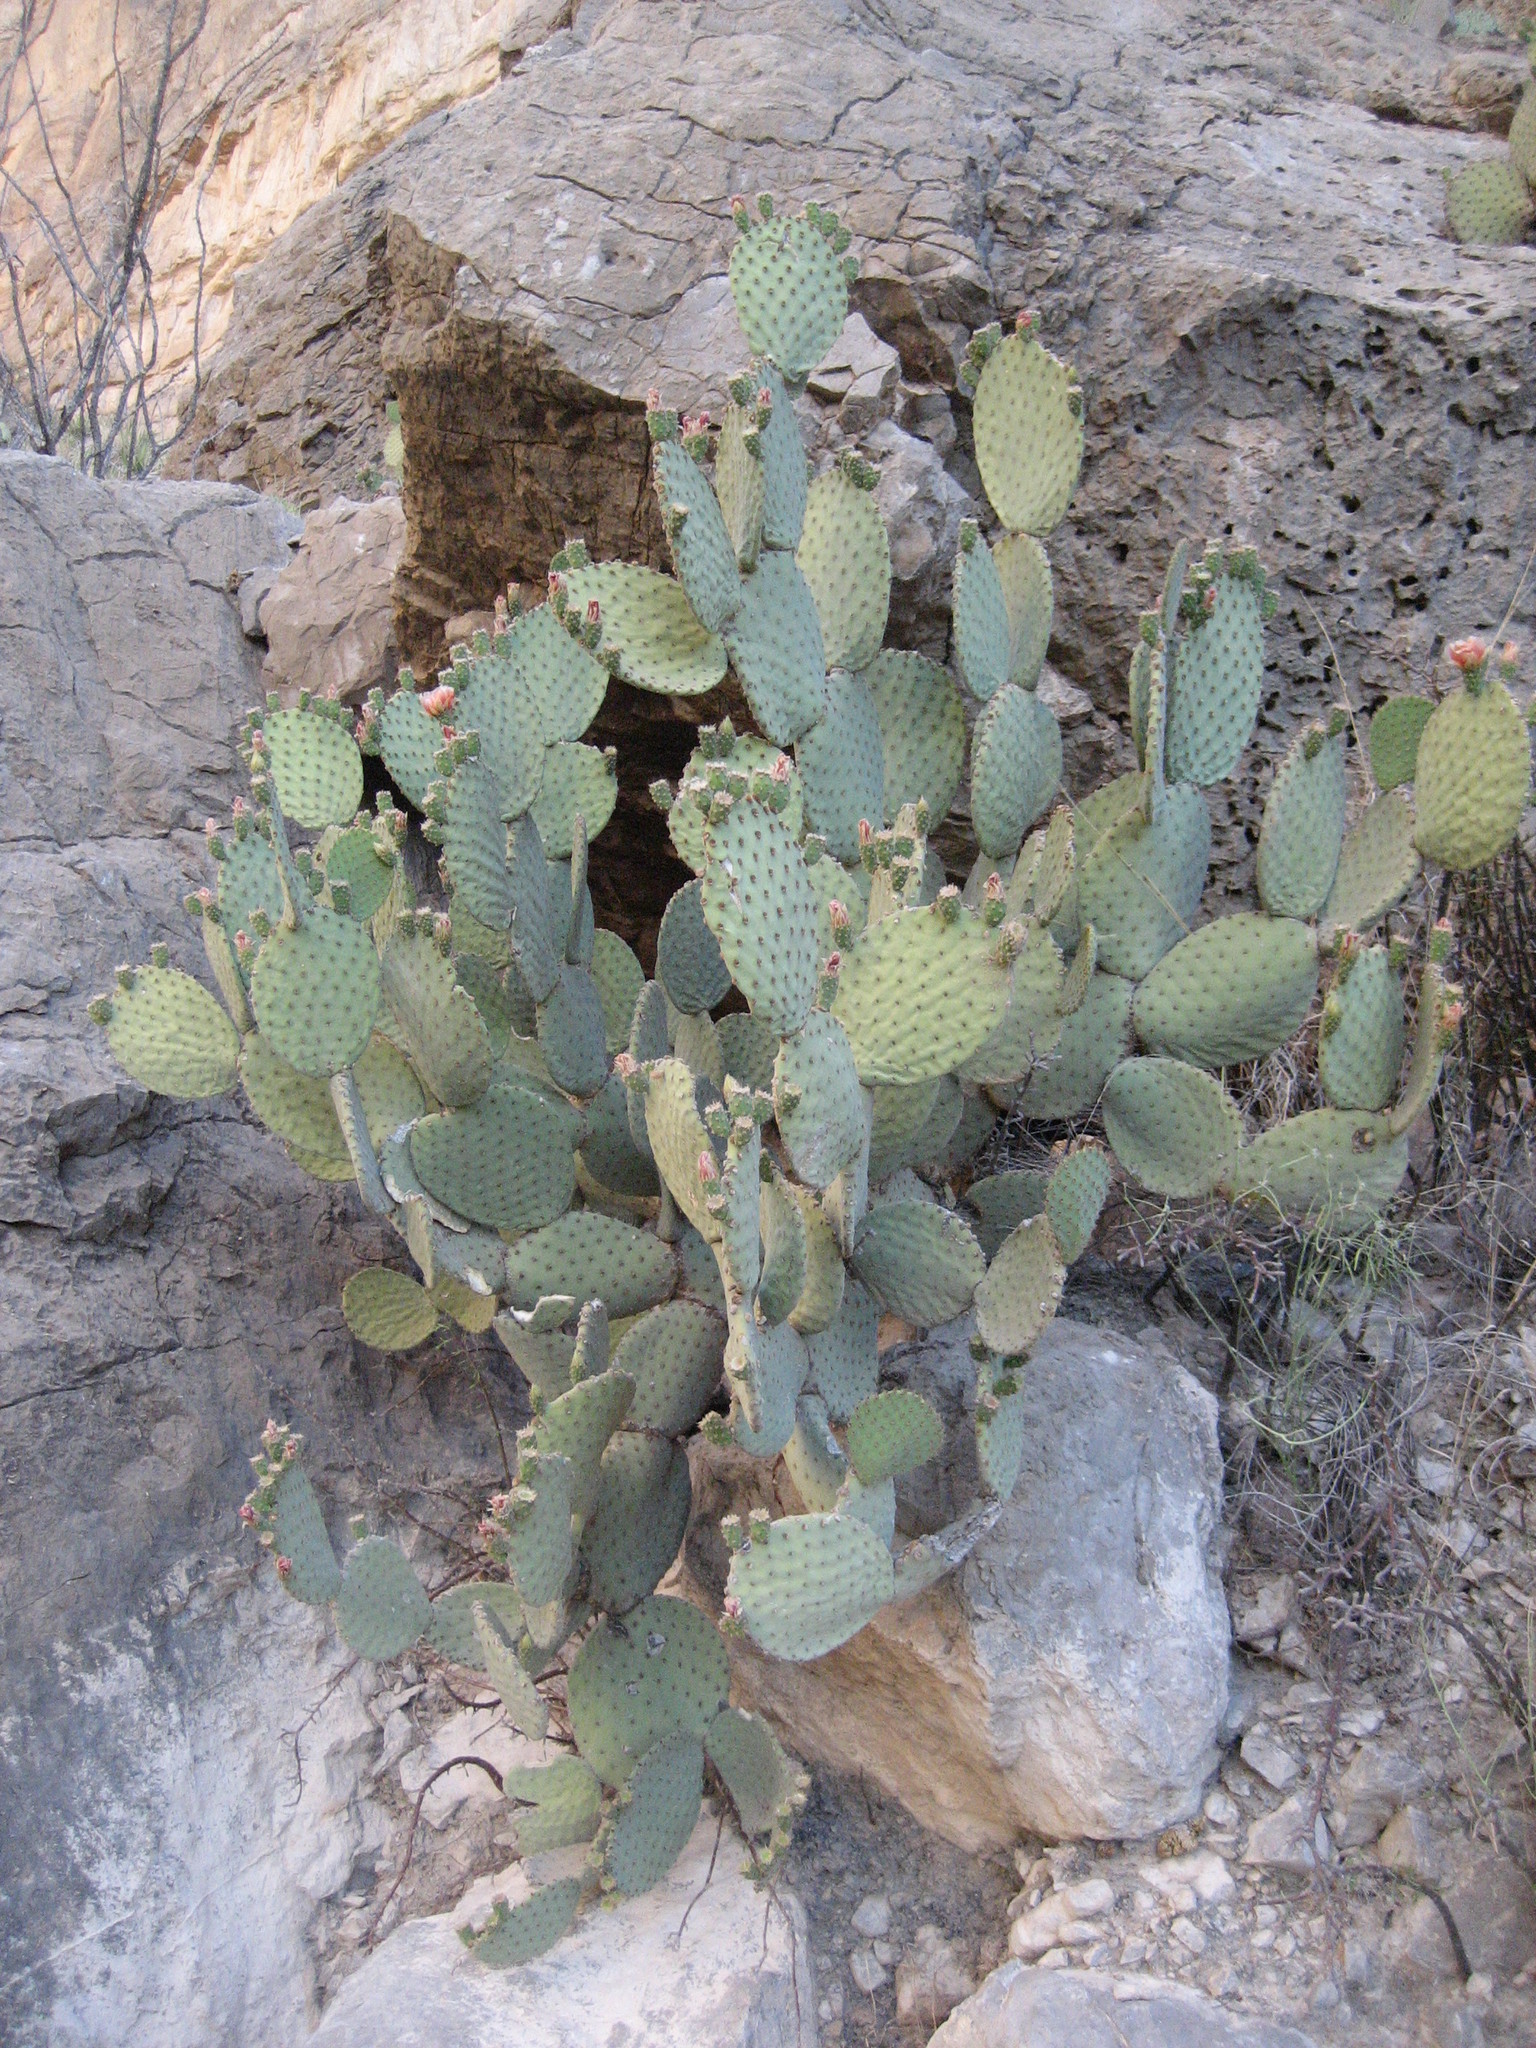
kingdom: Plantae
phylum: Tracheophyta
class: Magnoliopsida
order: Caryophyllales
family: Cactaceae
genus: Opuntia
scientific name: Opuntia rufida
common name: Blind pricklypear
